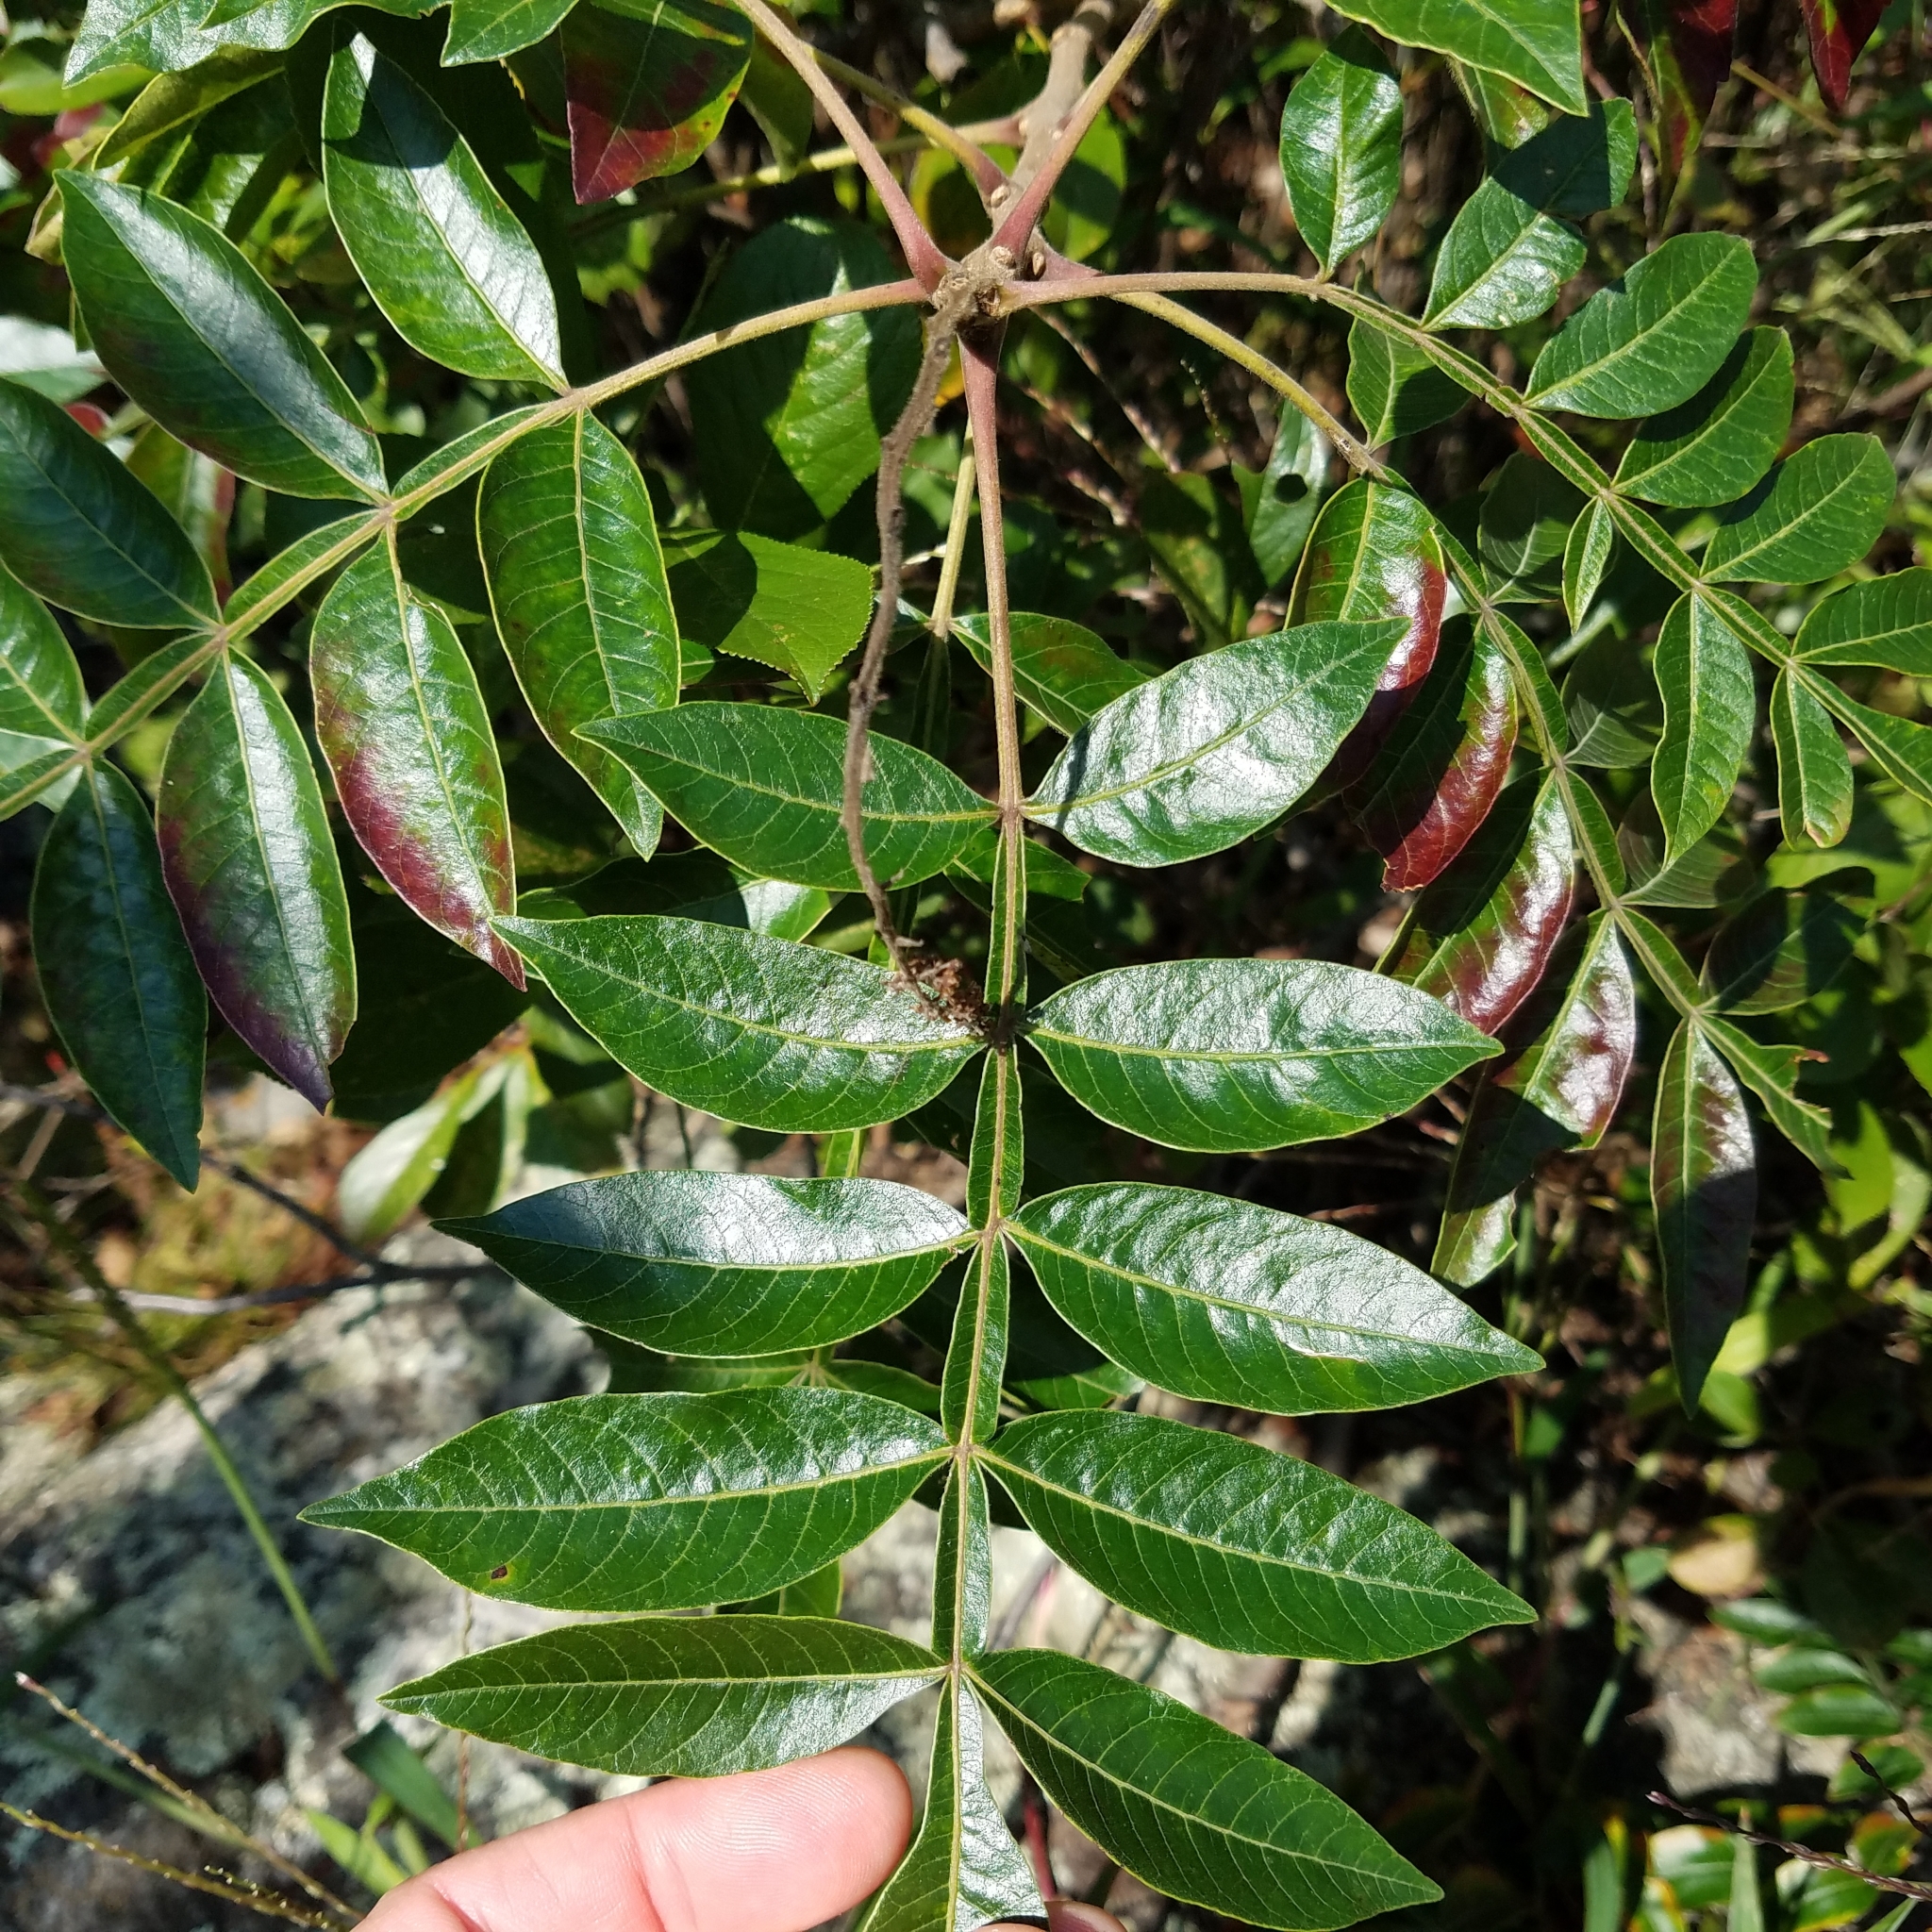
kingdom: Plantae
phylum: Tracheophyta
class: Magnoliopsida
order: Sapindales
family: Anacardiaceae
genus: Rhus
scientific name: Rhus copallina
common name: Shining sumac
